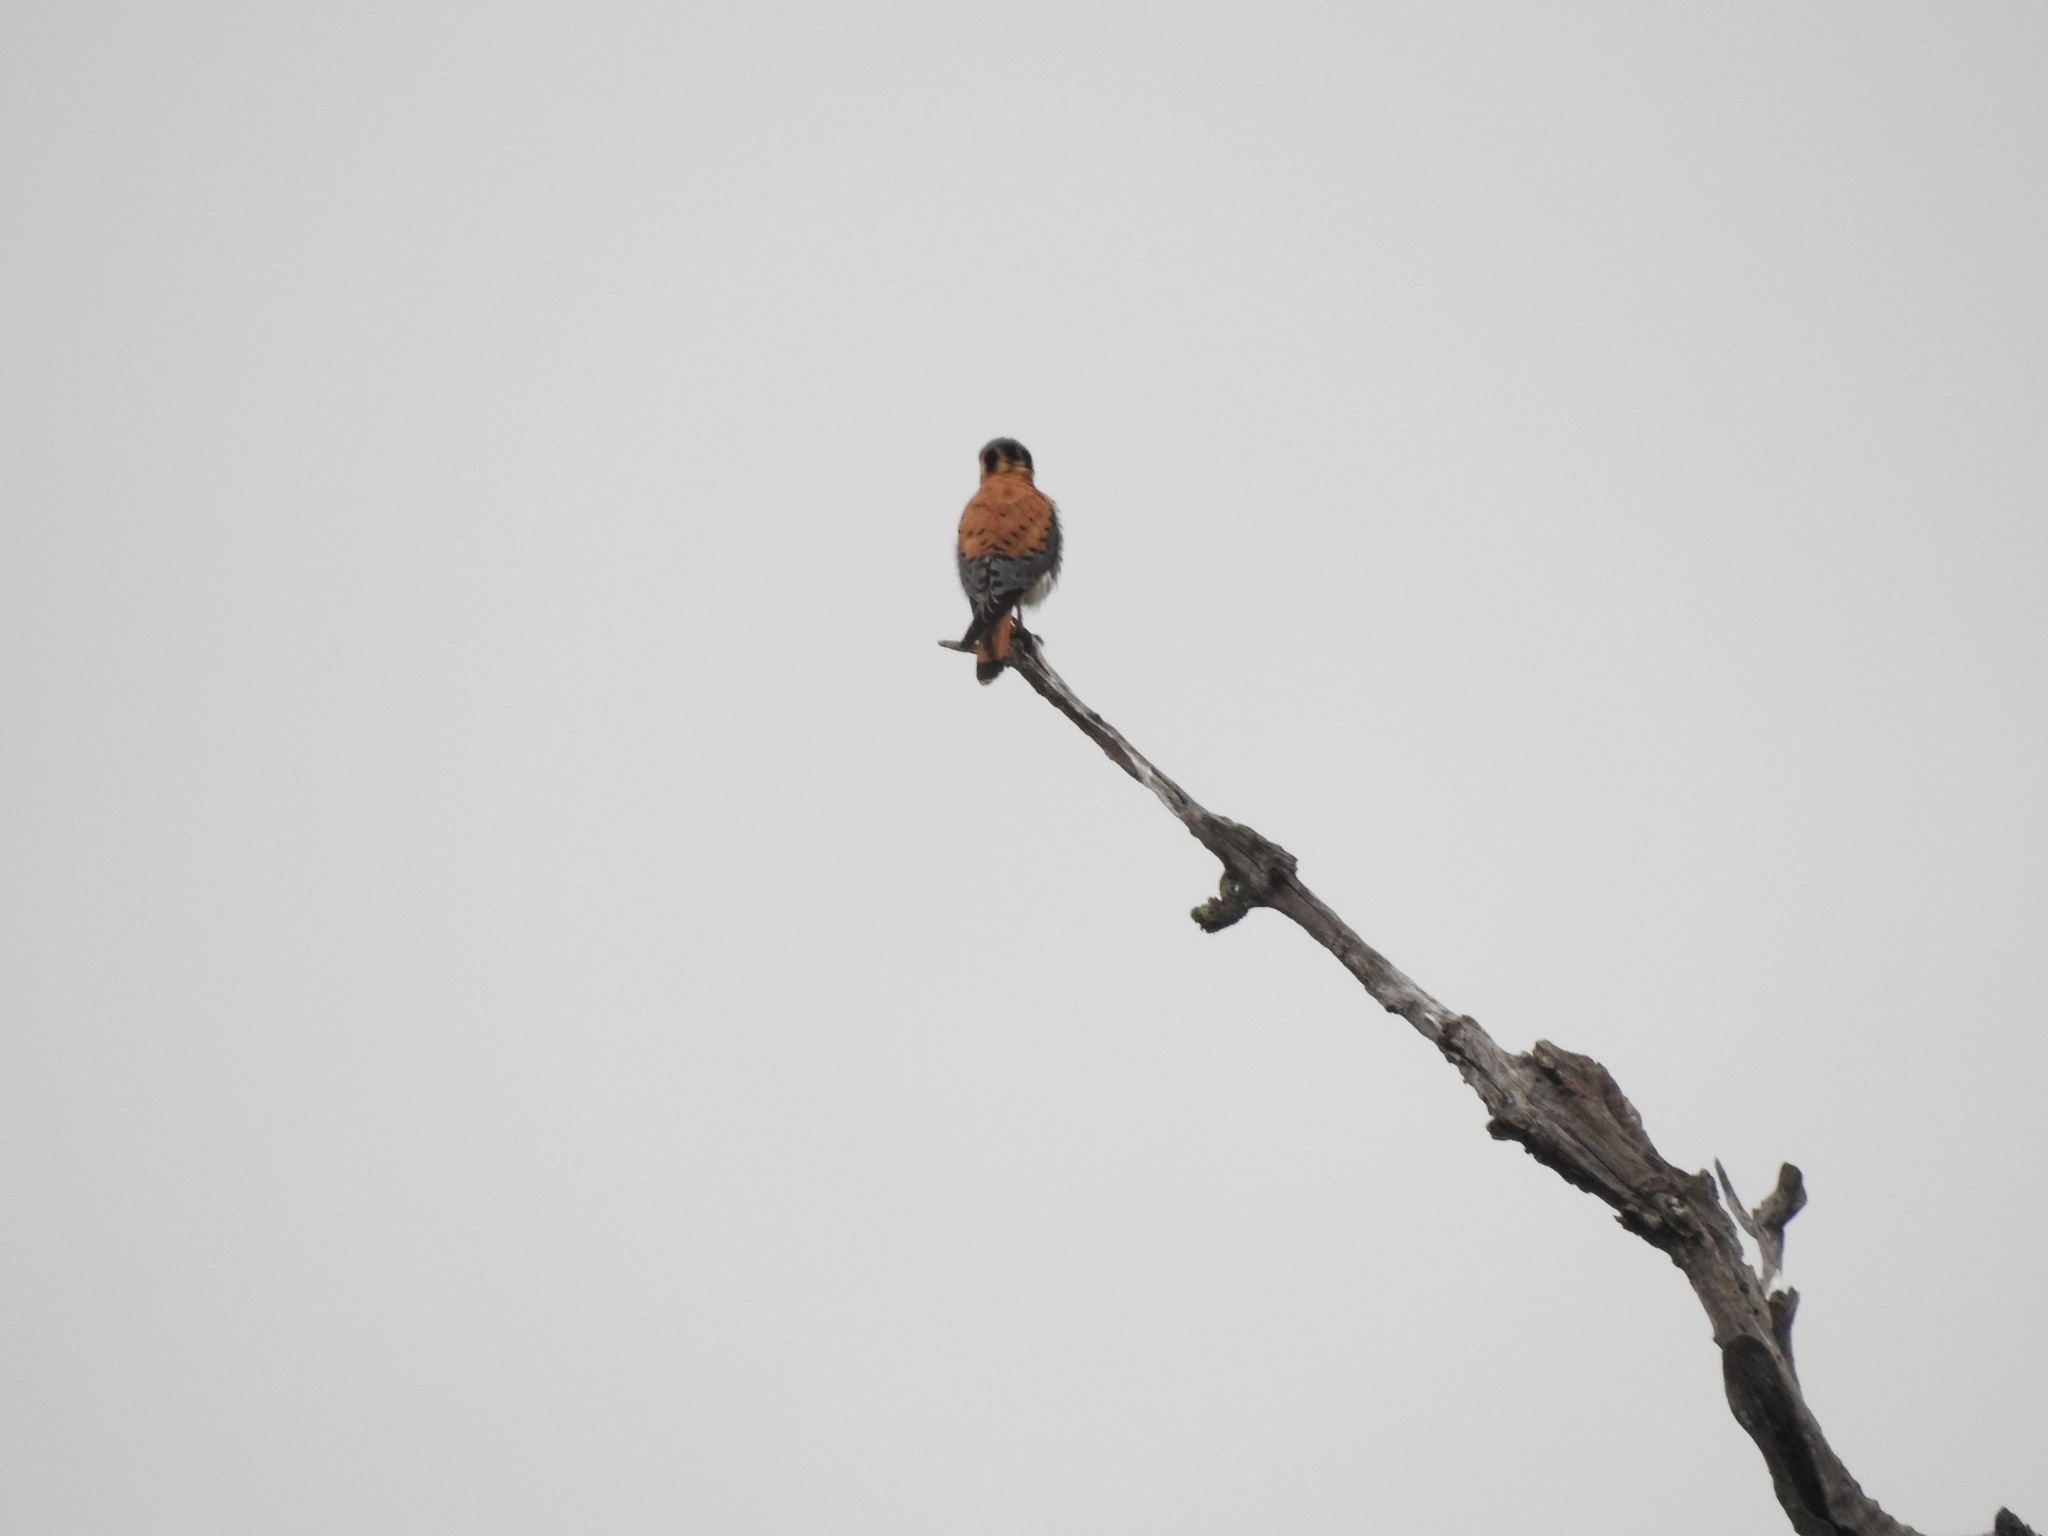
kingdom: Animalia
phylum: Chordata
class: Aves
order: Falconiformes
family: Falconidae
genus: Falco
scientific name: Falco sparverius
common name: American kestrel
